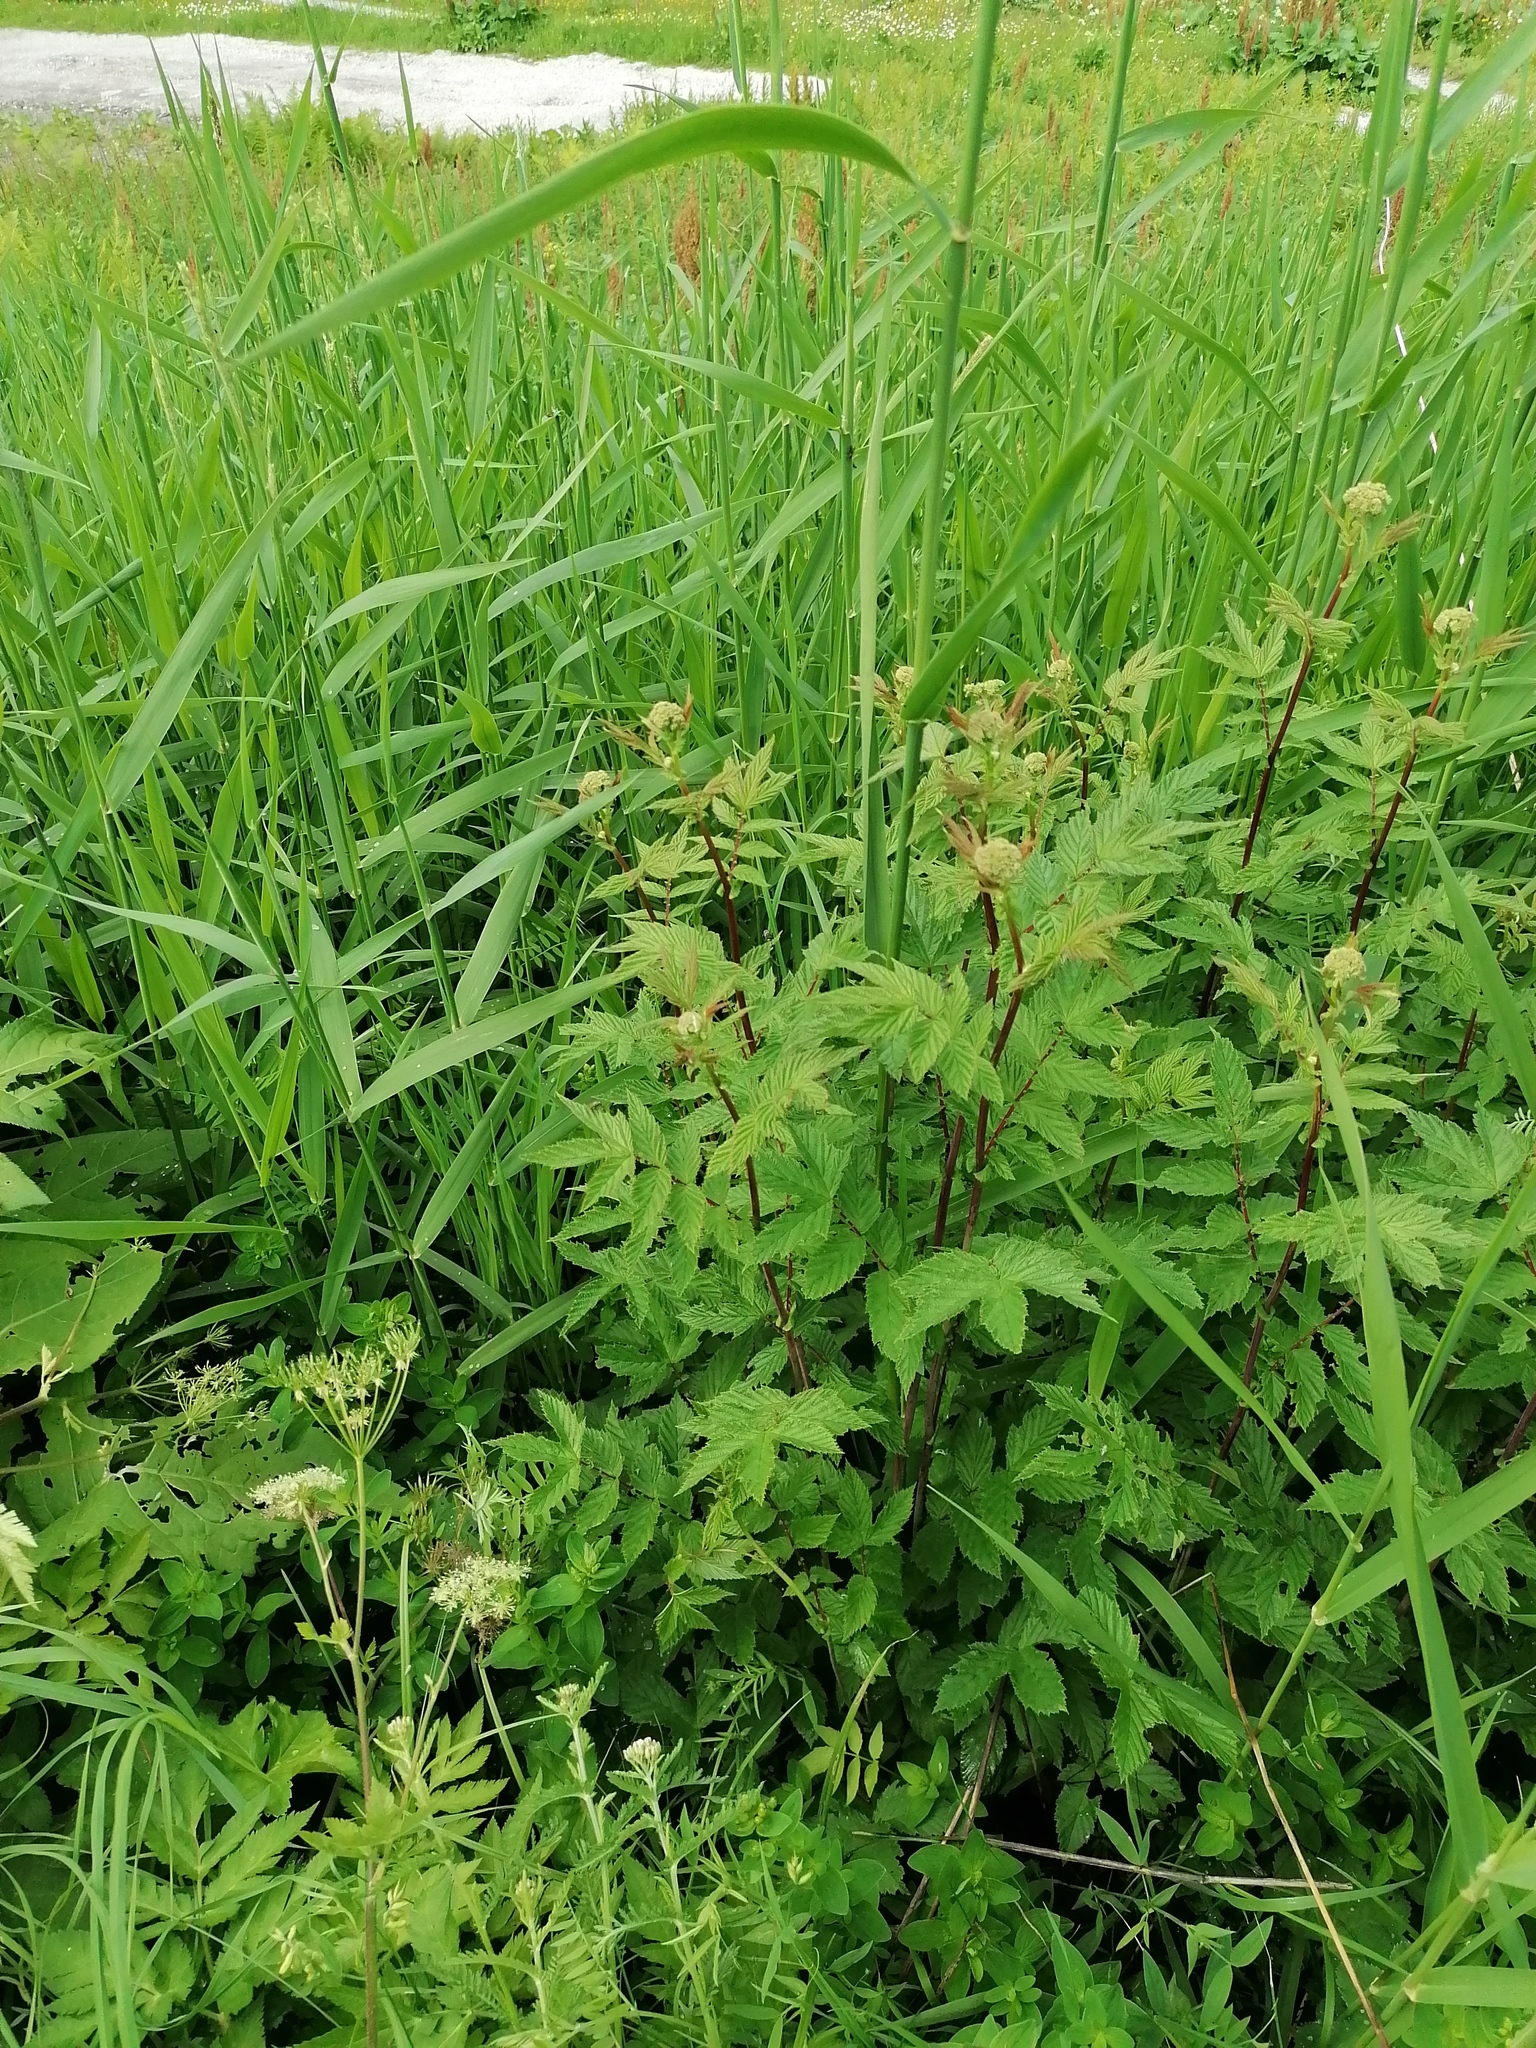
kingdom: Plantae
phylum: Tracheophyta
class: Magnoliopsida
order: Rosales
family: Rosaceae
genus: Filipendula
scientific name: Filipendula ulmaria
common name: Meadowsweet
